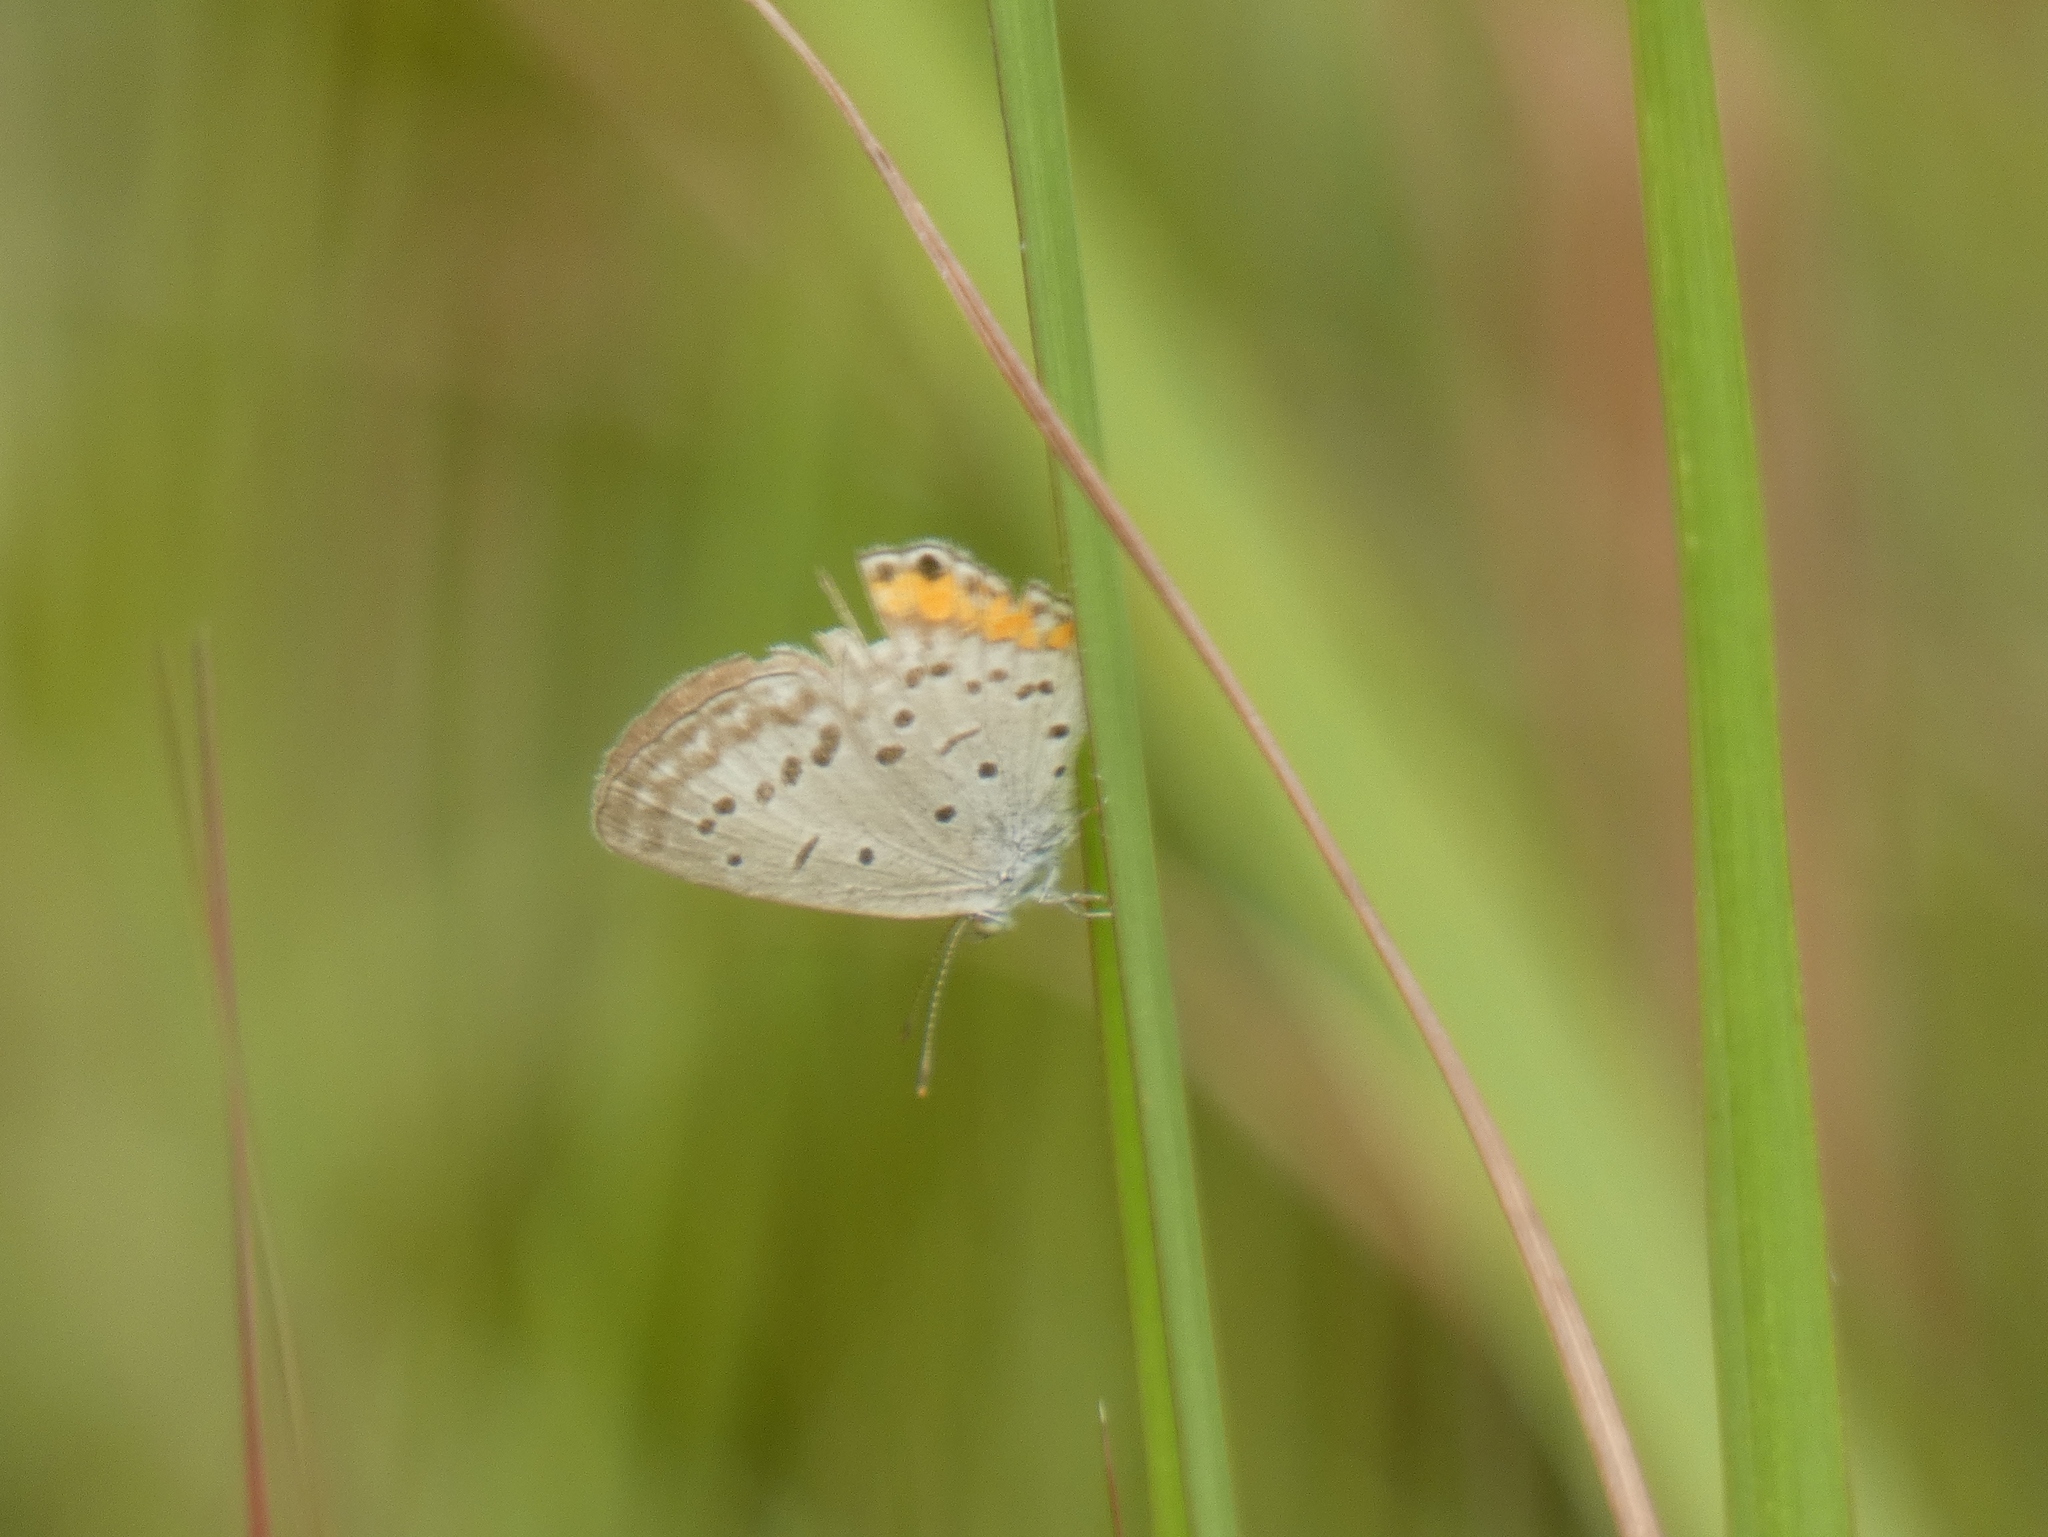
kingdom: Animalia
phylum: Arthropoda
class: Insecta
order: Lepidoptera
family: Lycaenidae
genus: Cupido
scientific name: Cupido cissus
